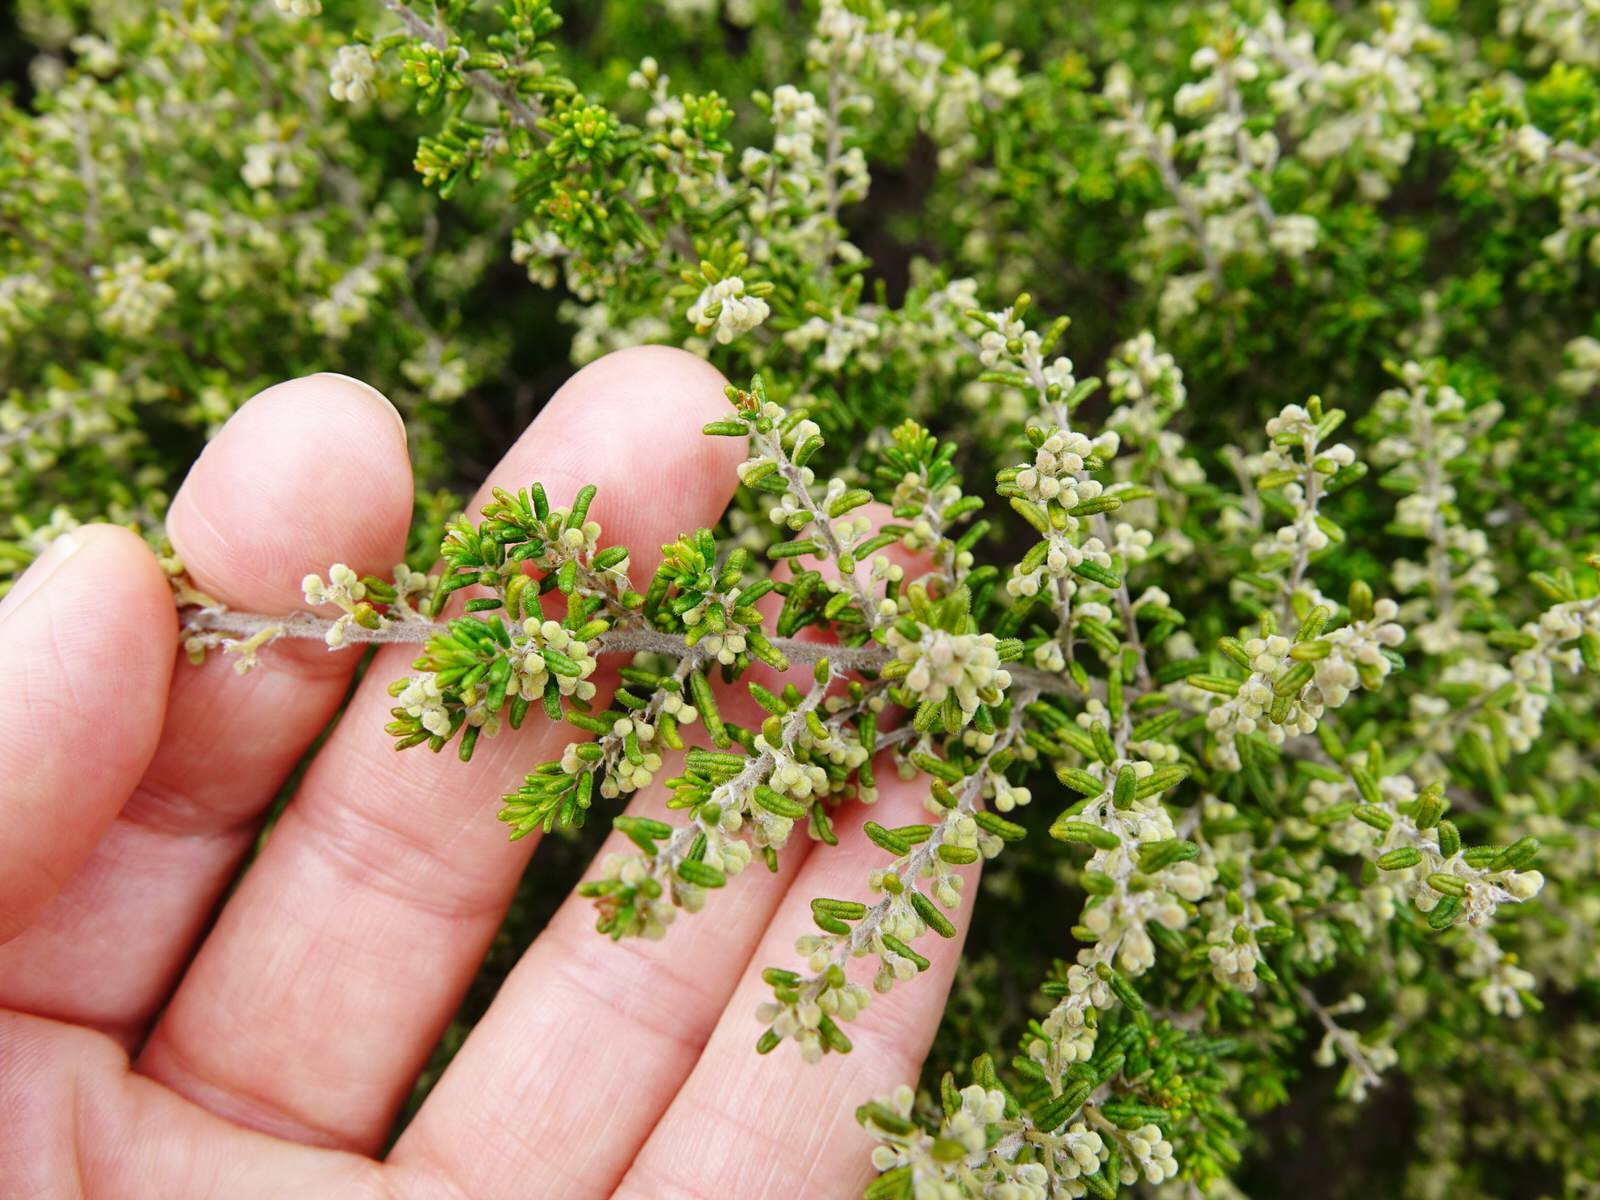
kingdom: Plantae
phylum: Tracheophyta
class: Magnoliopsida
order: Rosales
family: Rhamnaceae
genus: Pomaderris
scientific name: Pomaderris amoena
